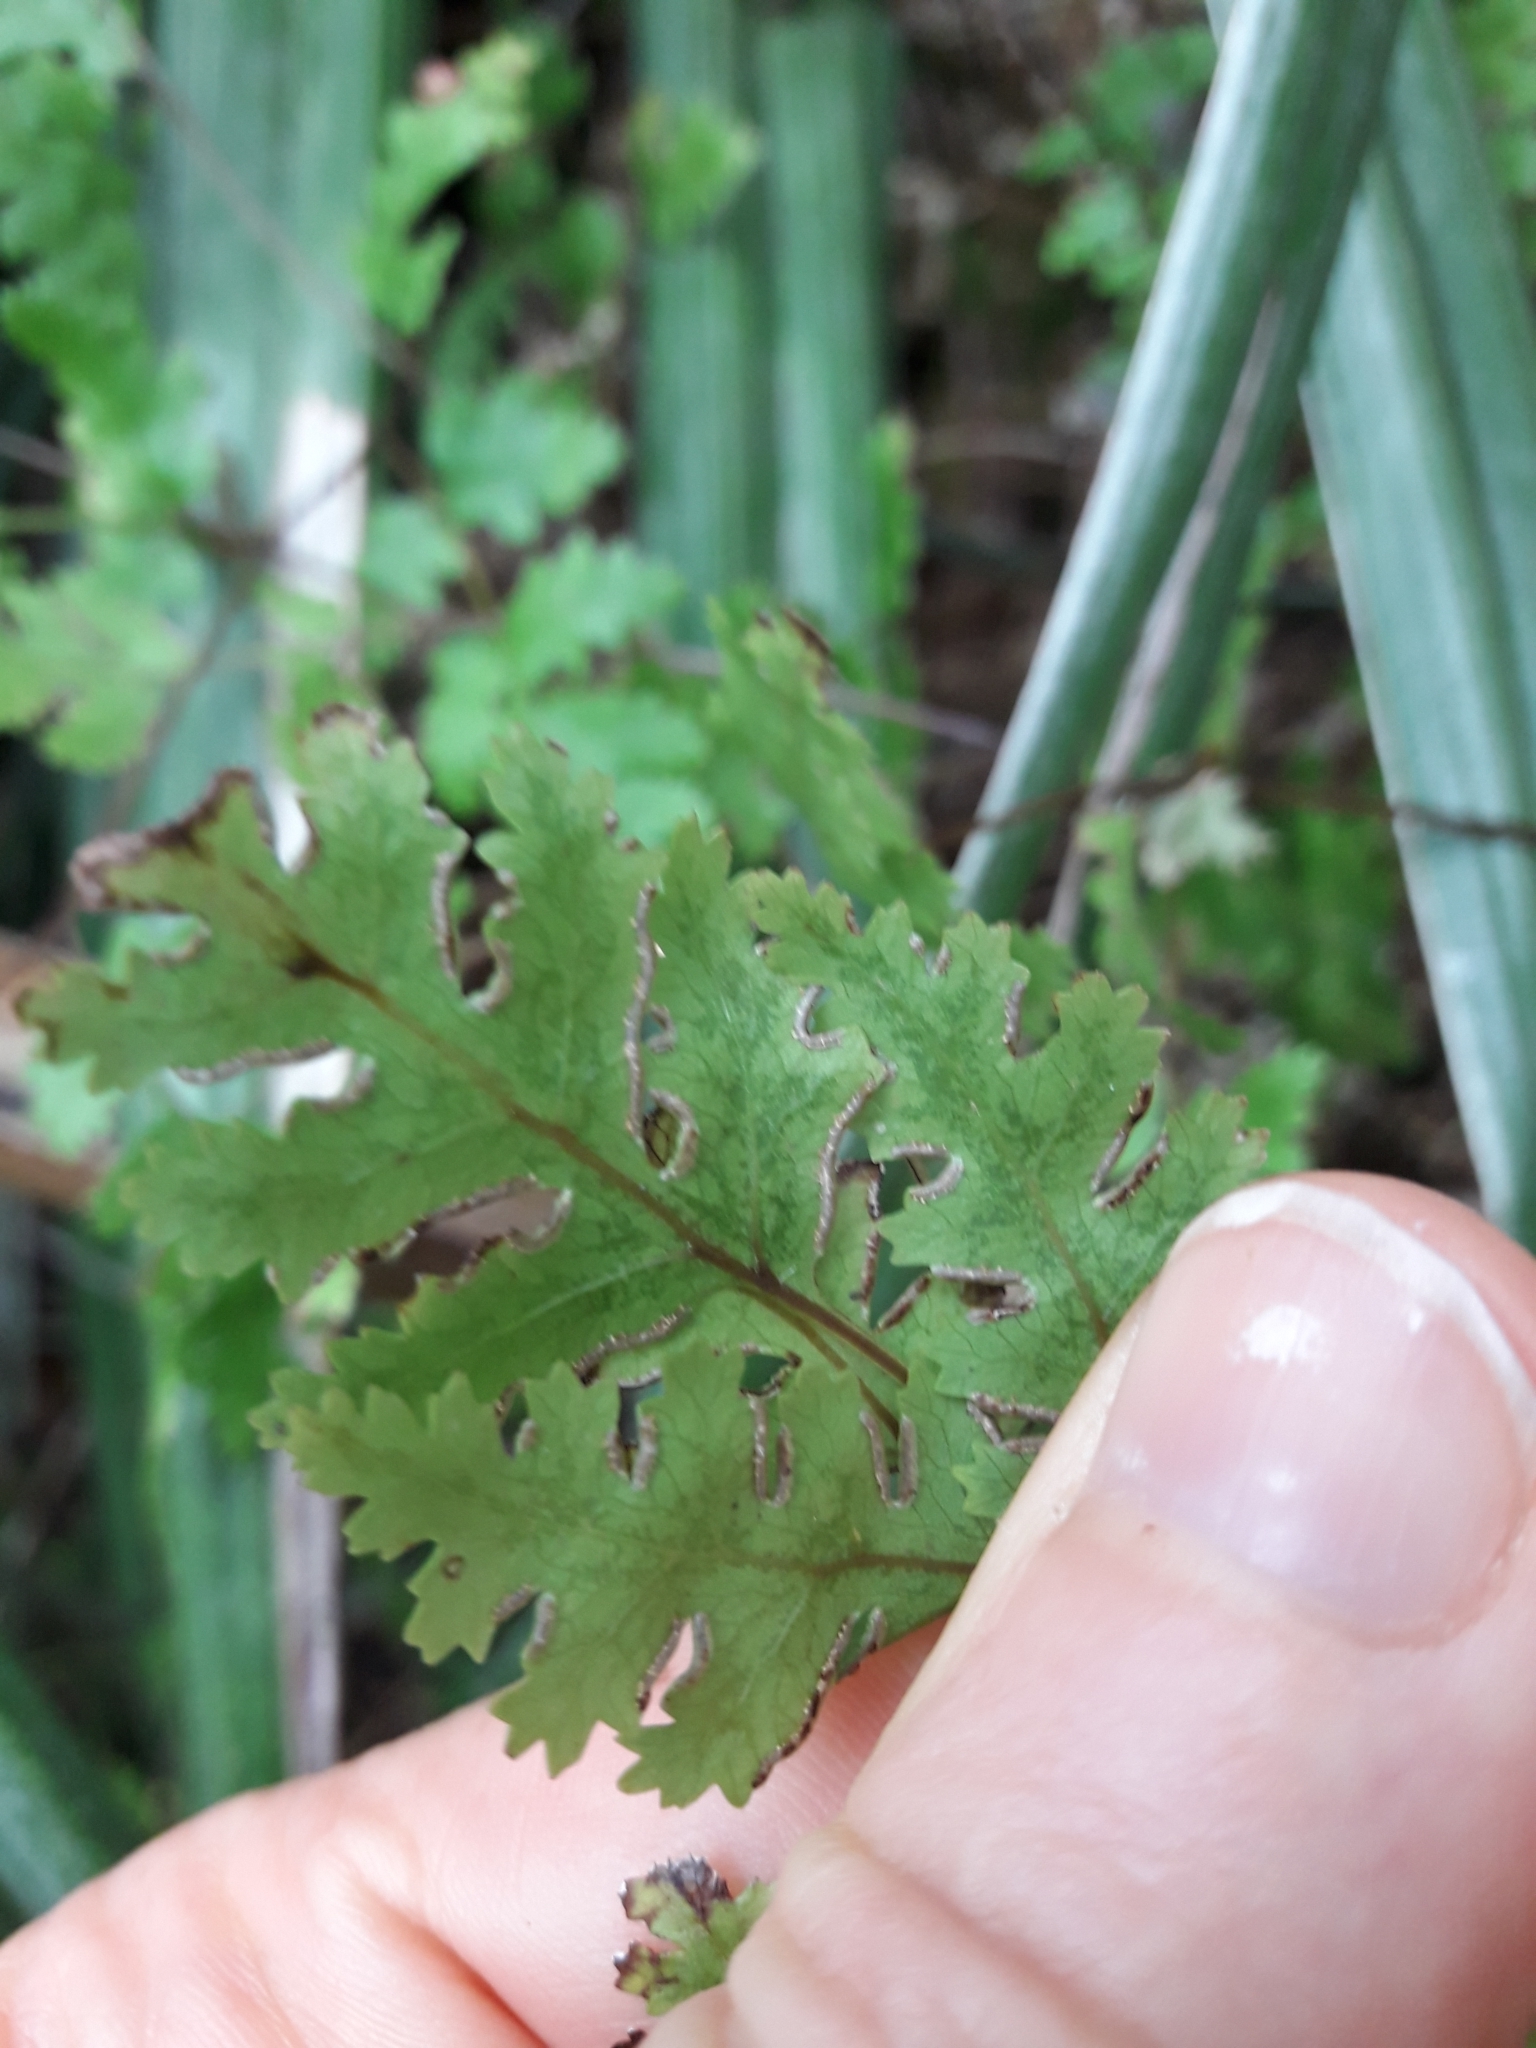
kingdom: Plantae
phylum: Tracheophyta
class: Polypodiopsida
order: Polypodiales
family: Pteridaceae
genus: Pteris
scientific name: Pteris saxatilis
